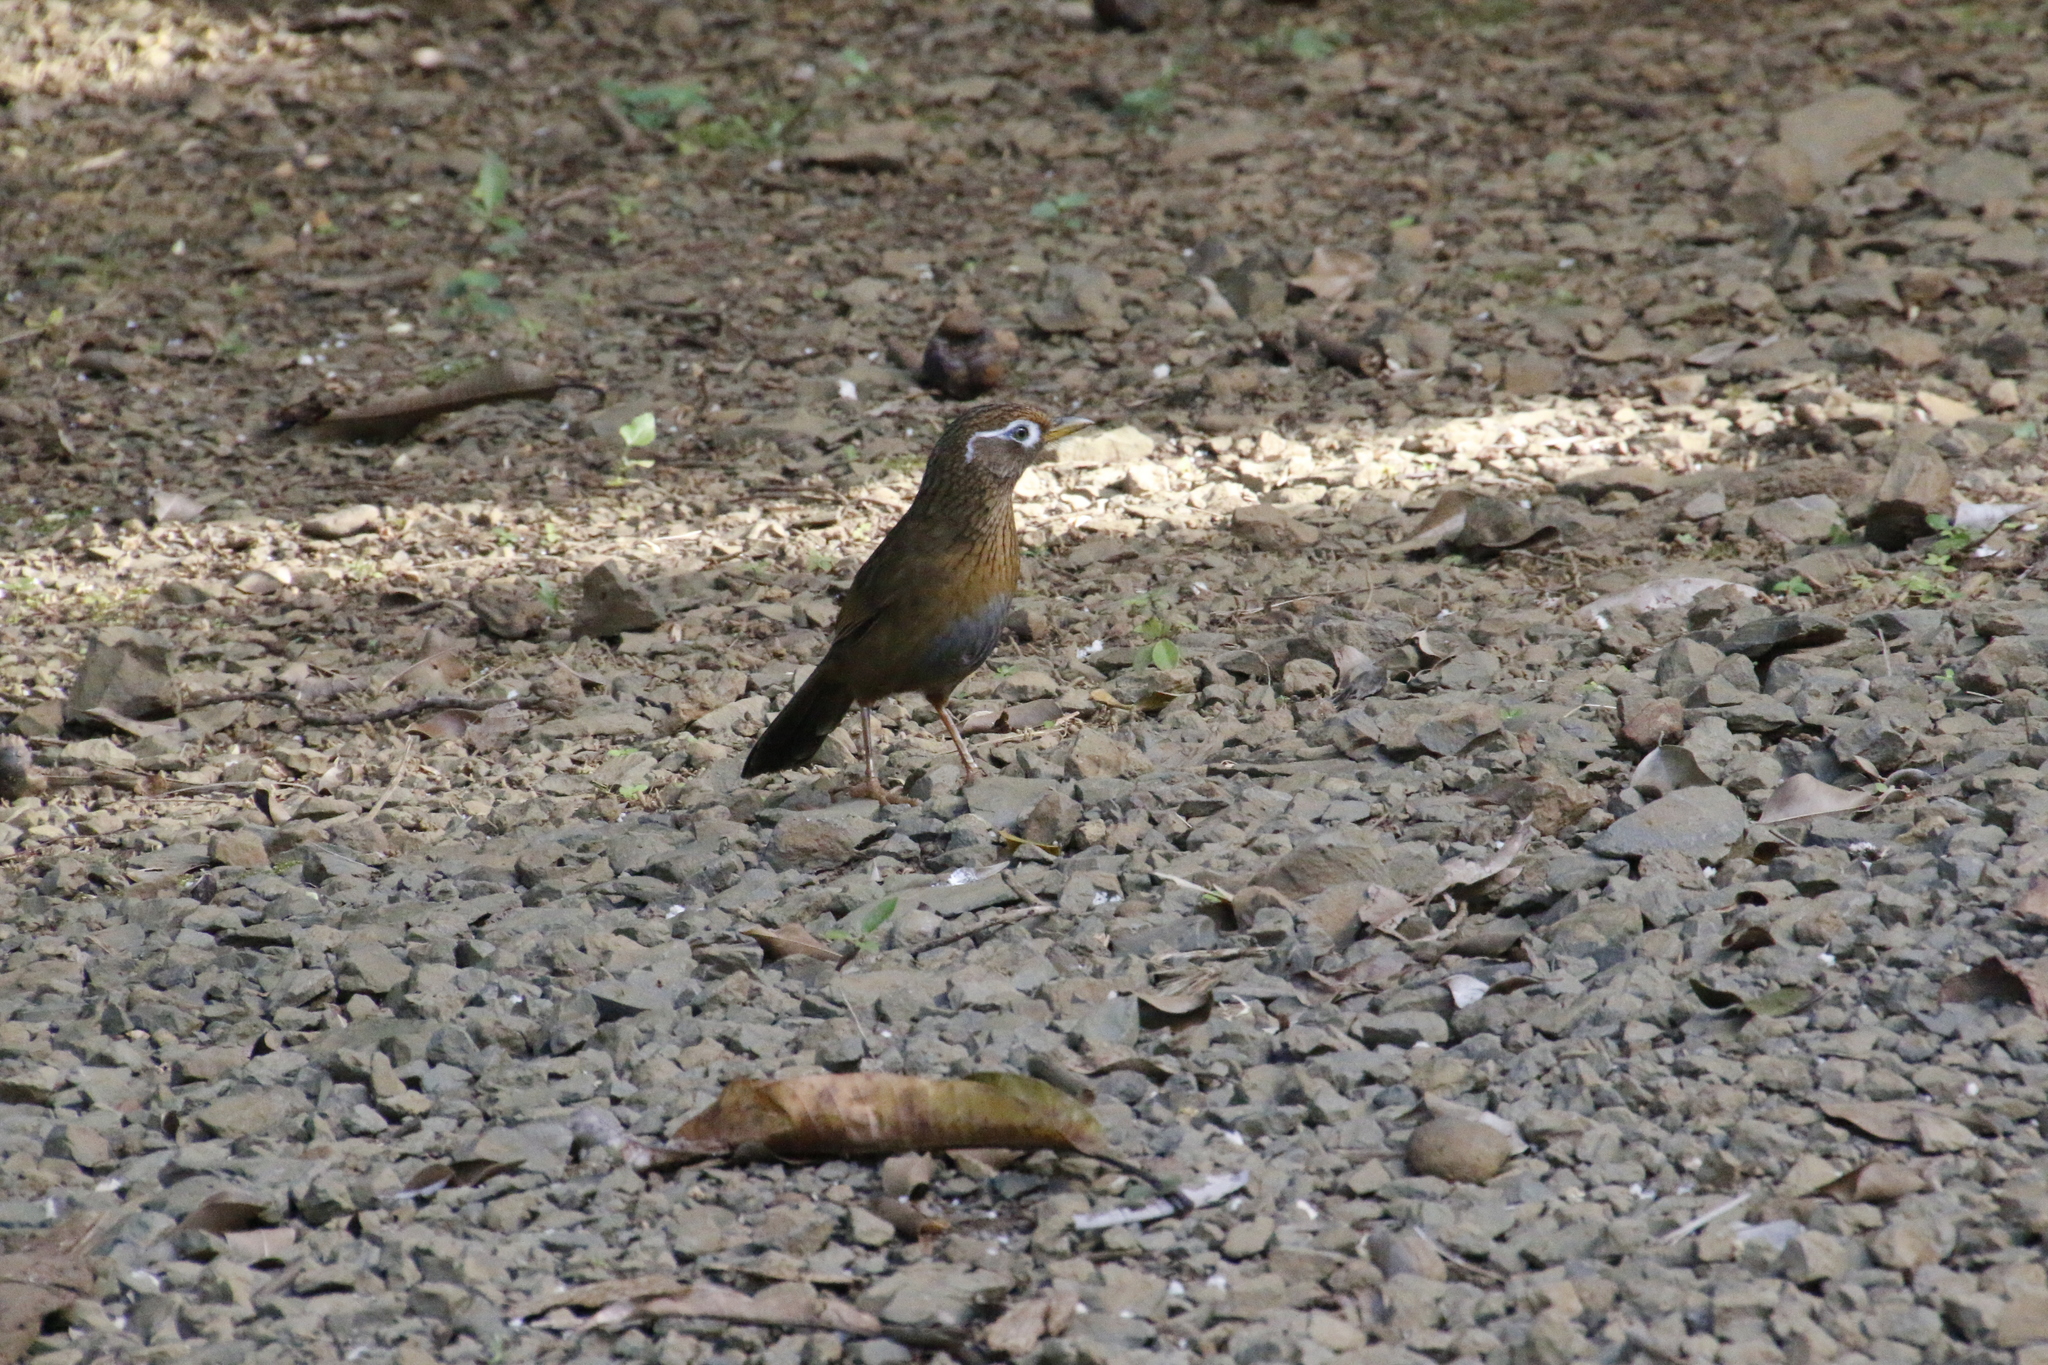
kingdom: Animalia
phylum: Chordata
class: Aves
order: Passeriformes
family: Leiothrichidae
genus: Garrulax
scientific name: Garrulax canorus
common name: Chinese hwamei
